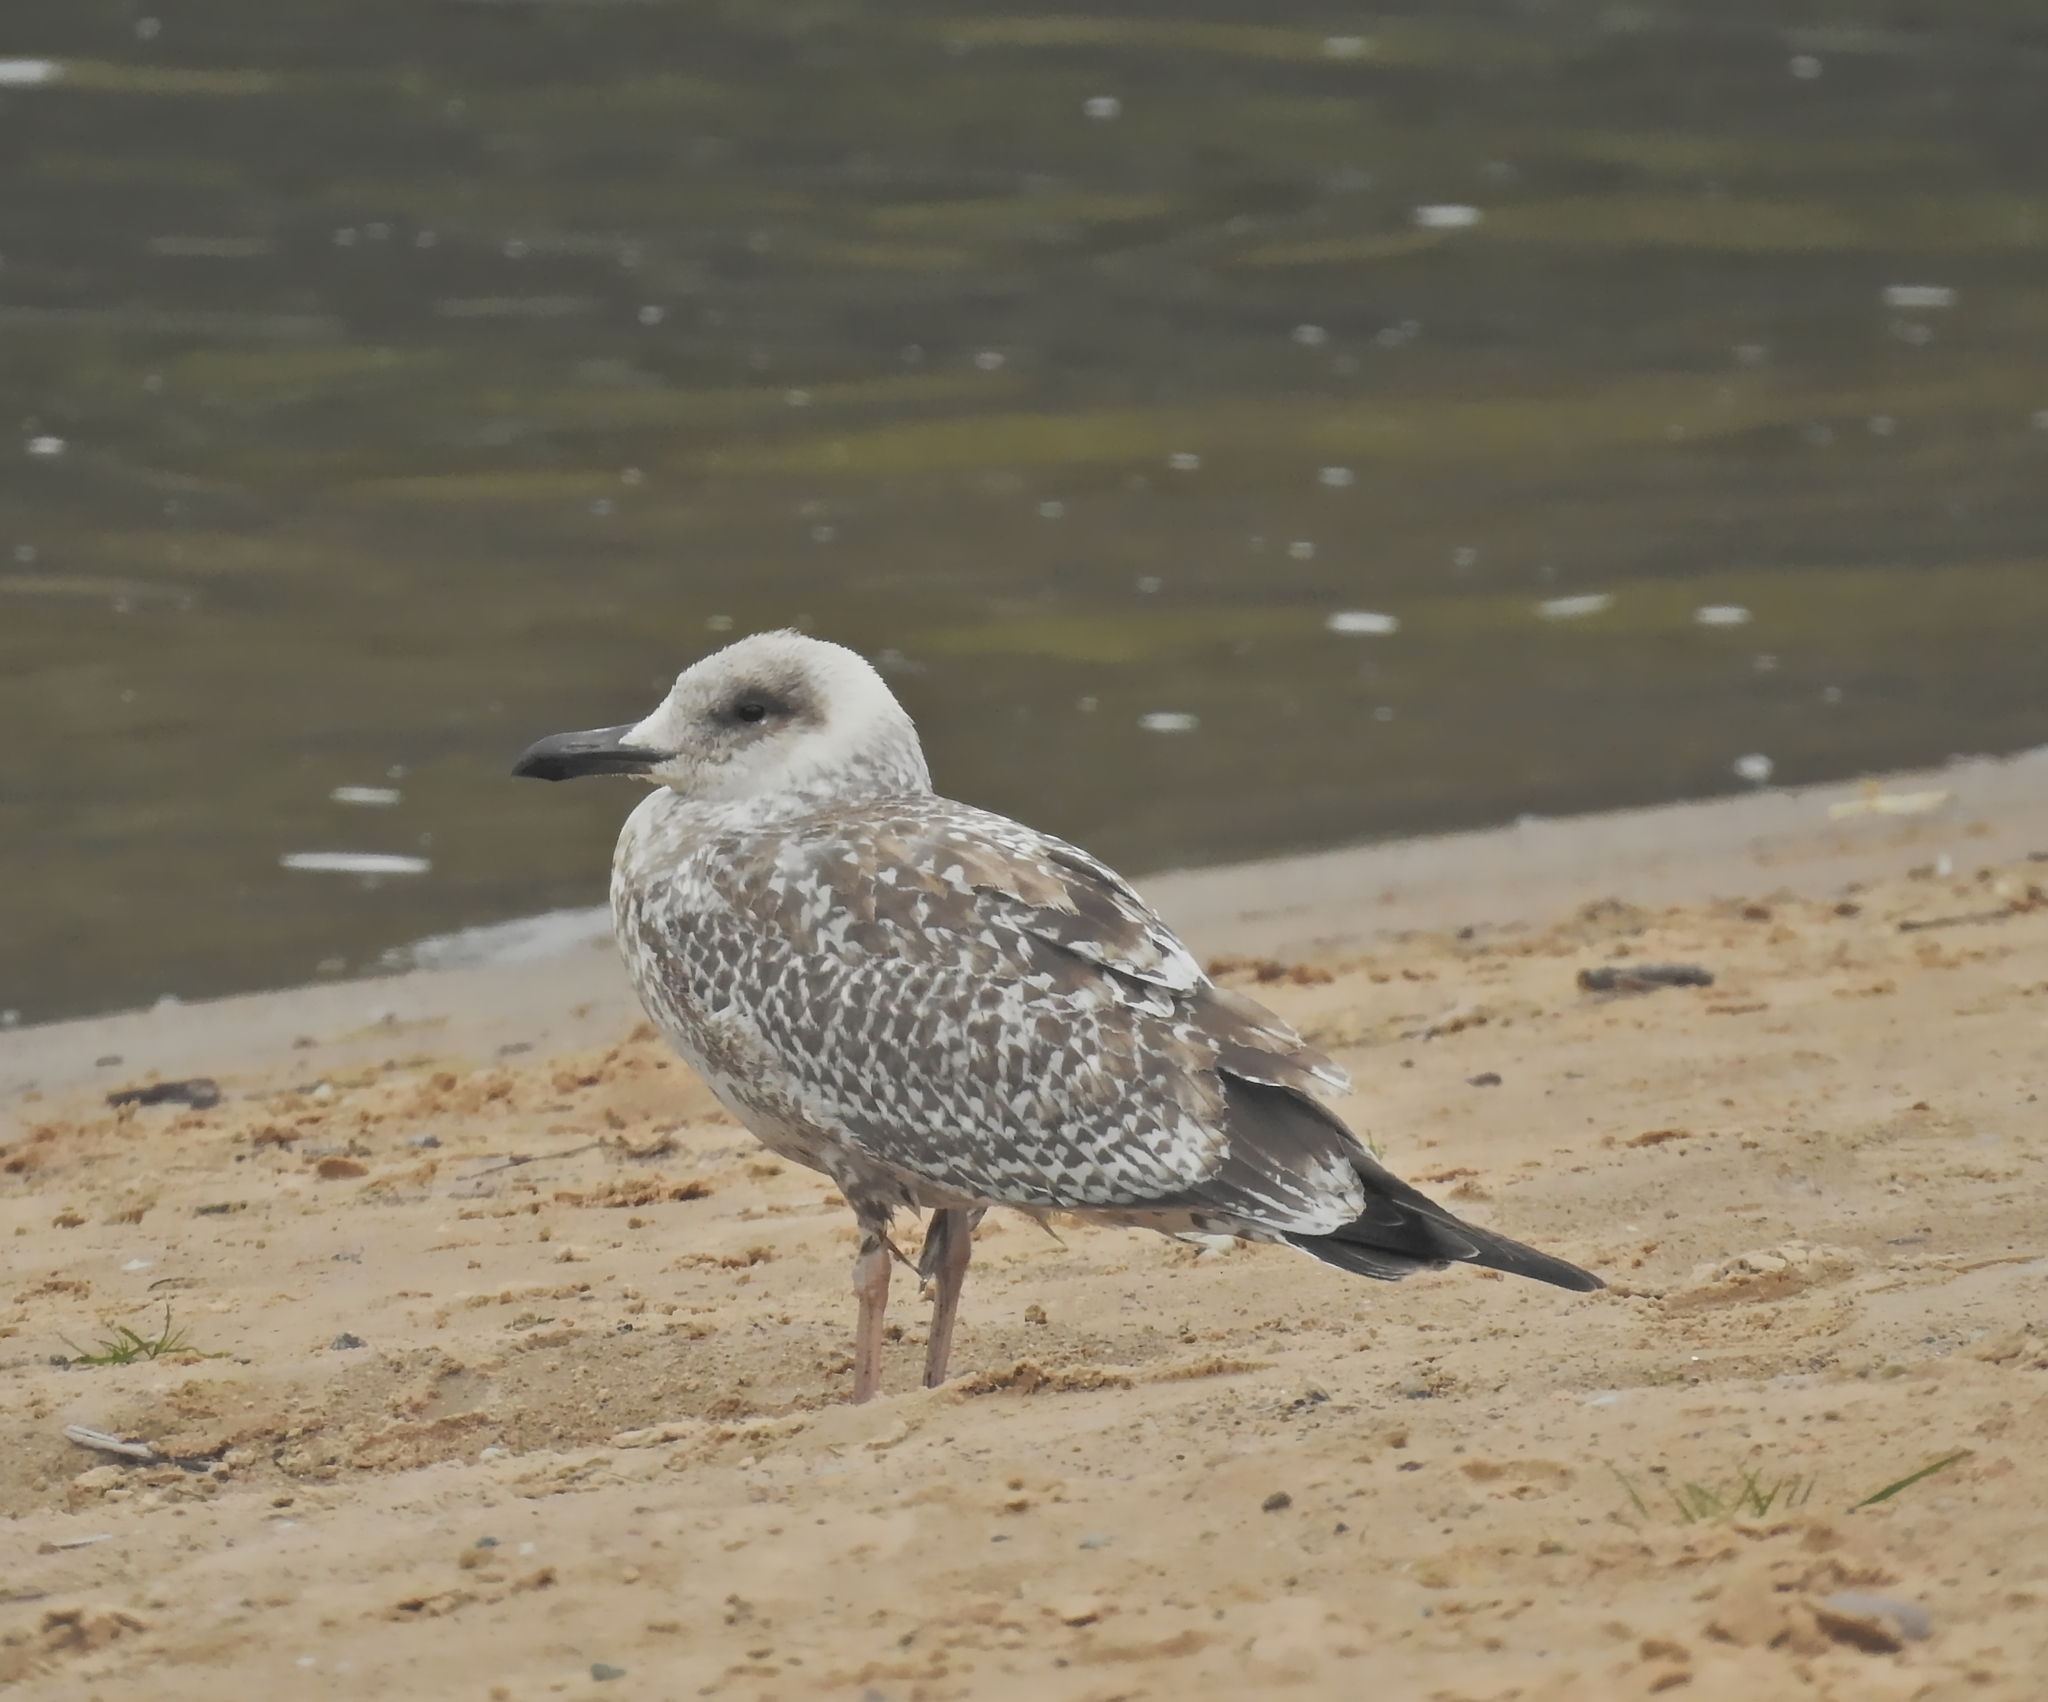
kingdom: Animalia
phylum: Chordata
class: Aves
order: Charadriiformes
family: Laridae
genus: Larus
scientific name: Larus argentatus
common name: Herring gull
